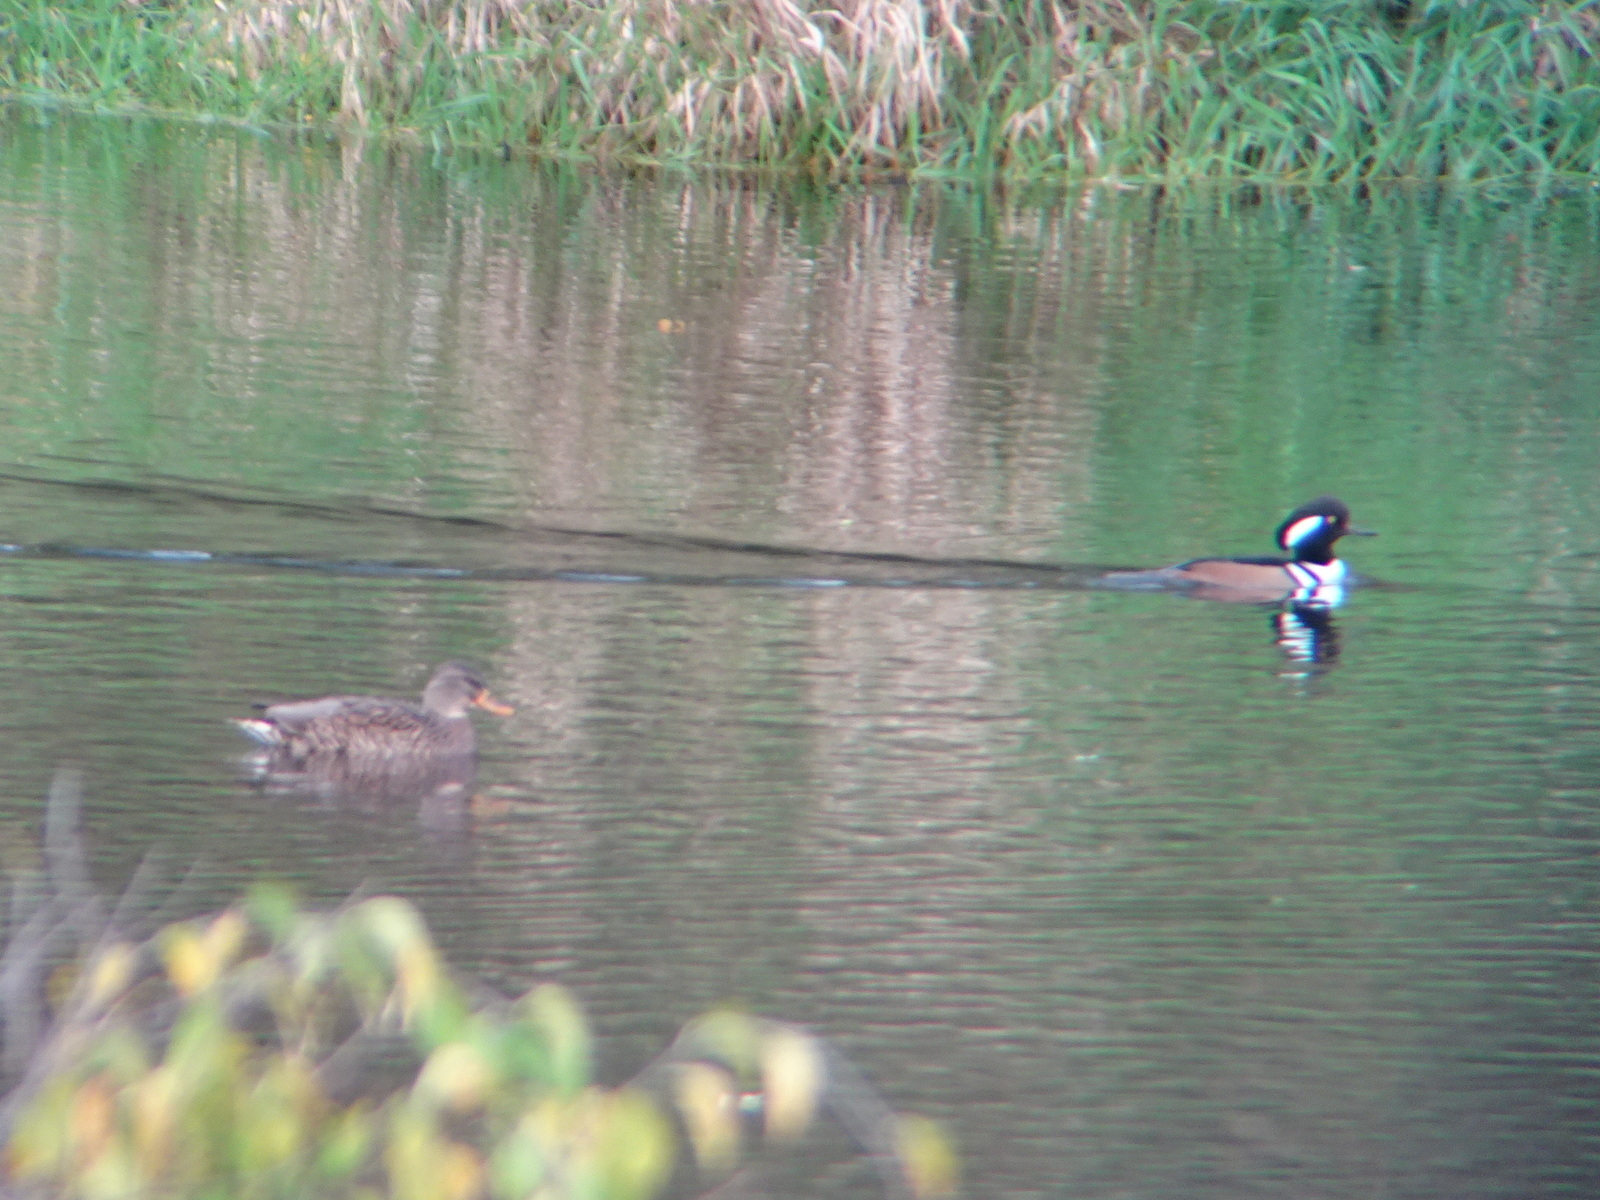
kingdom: Animalia
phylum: Chordata
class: Aves
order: Anseriformes
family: Anatidae
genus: Lophodytes
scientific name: Lophodytes cucullatus
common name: Hooded merganser
